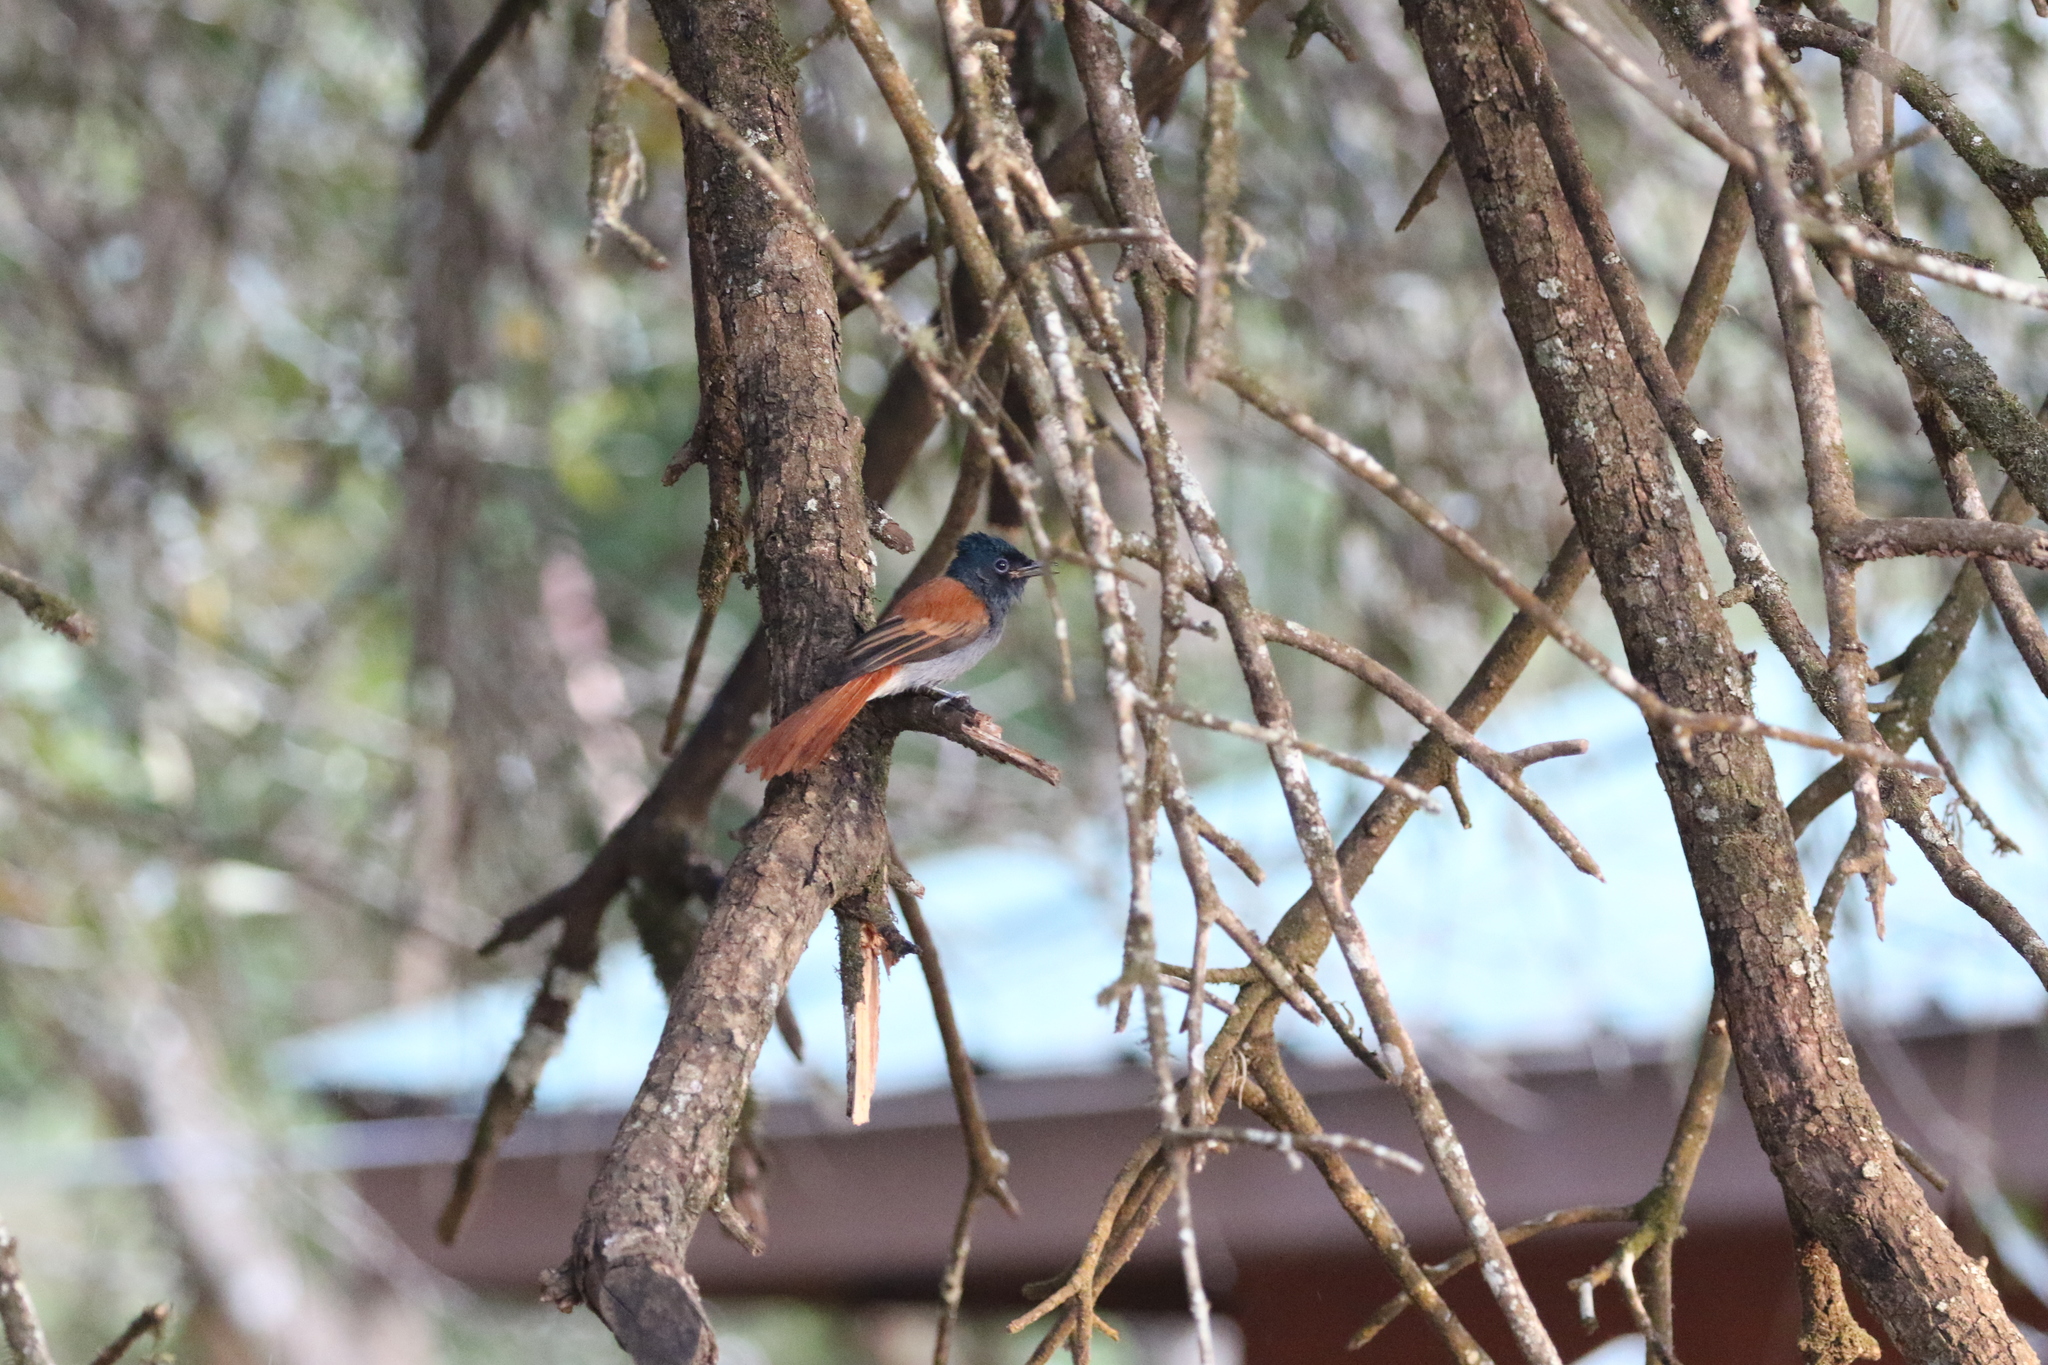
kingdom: Animalia
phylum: Chordata
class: Aves
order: Passeriformes
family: Monarchidae
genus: Terpsiphone
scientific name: Terpsiphone viridis
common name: African paradise flycatcher
